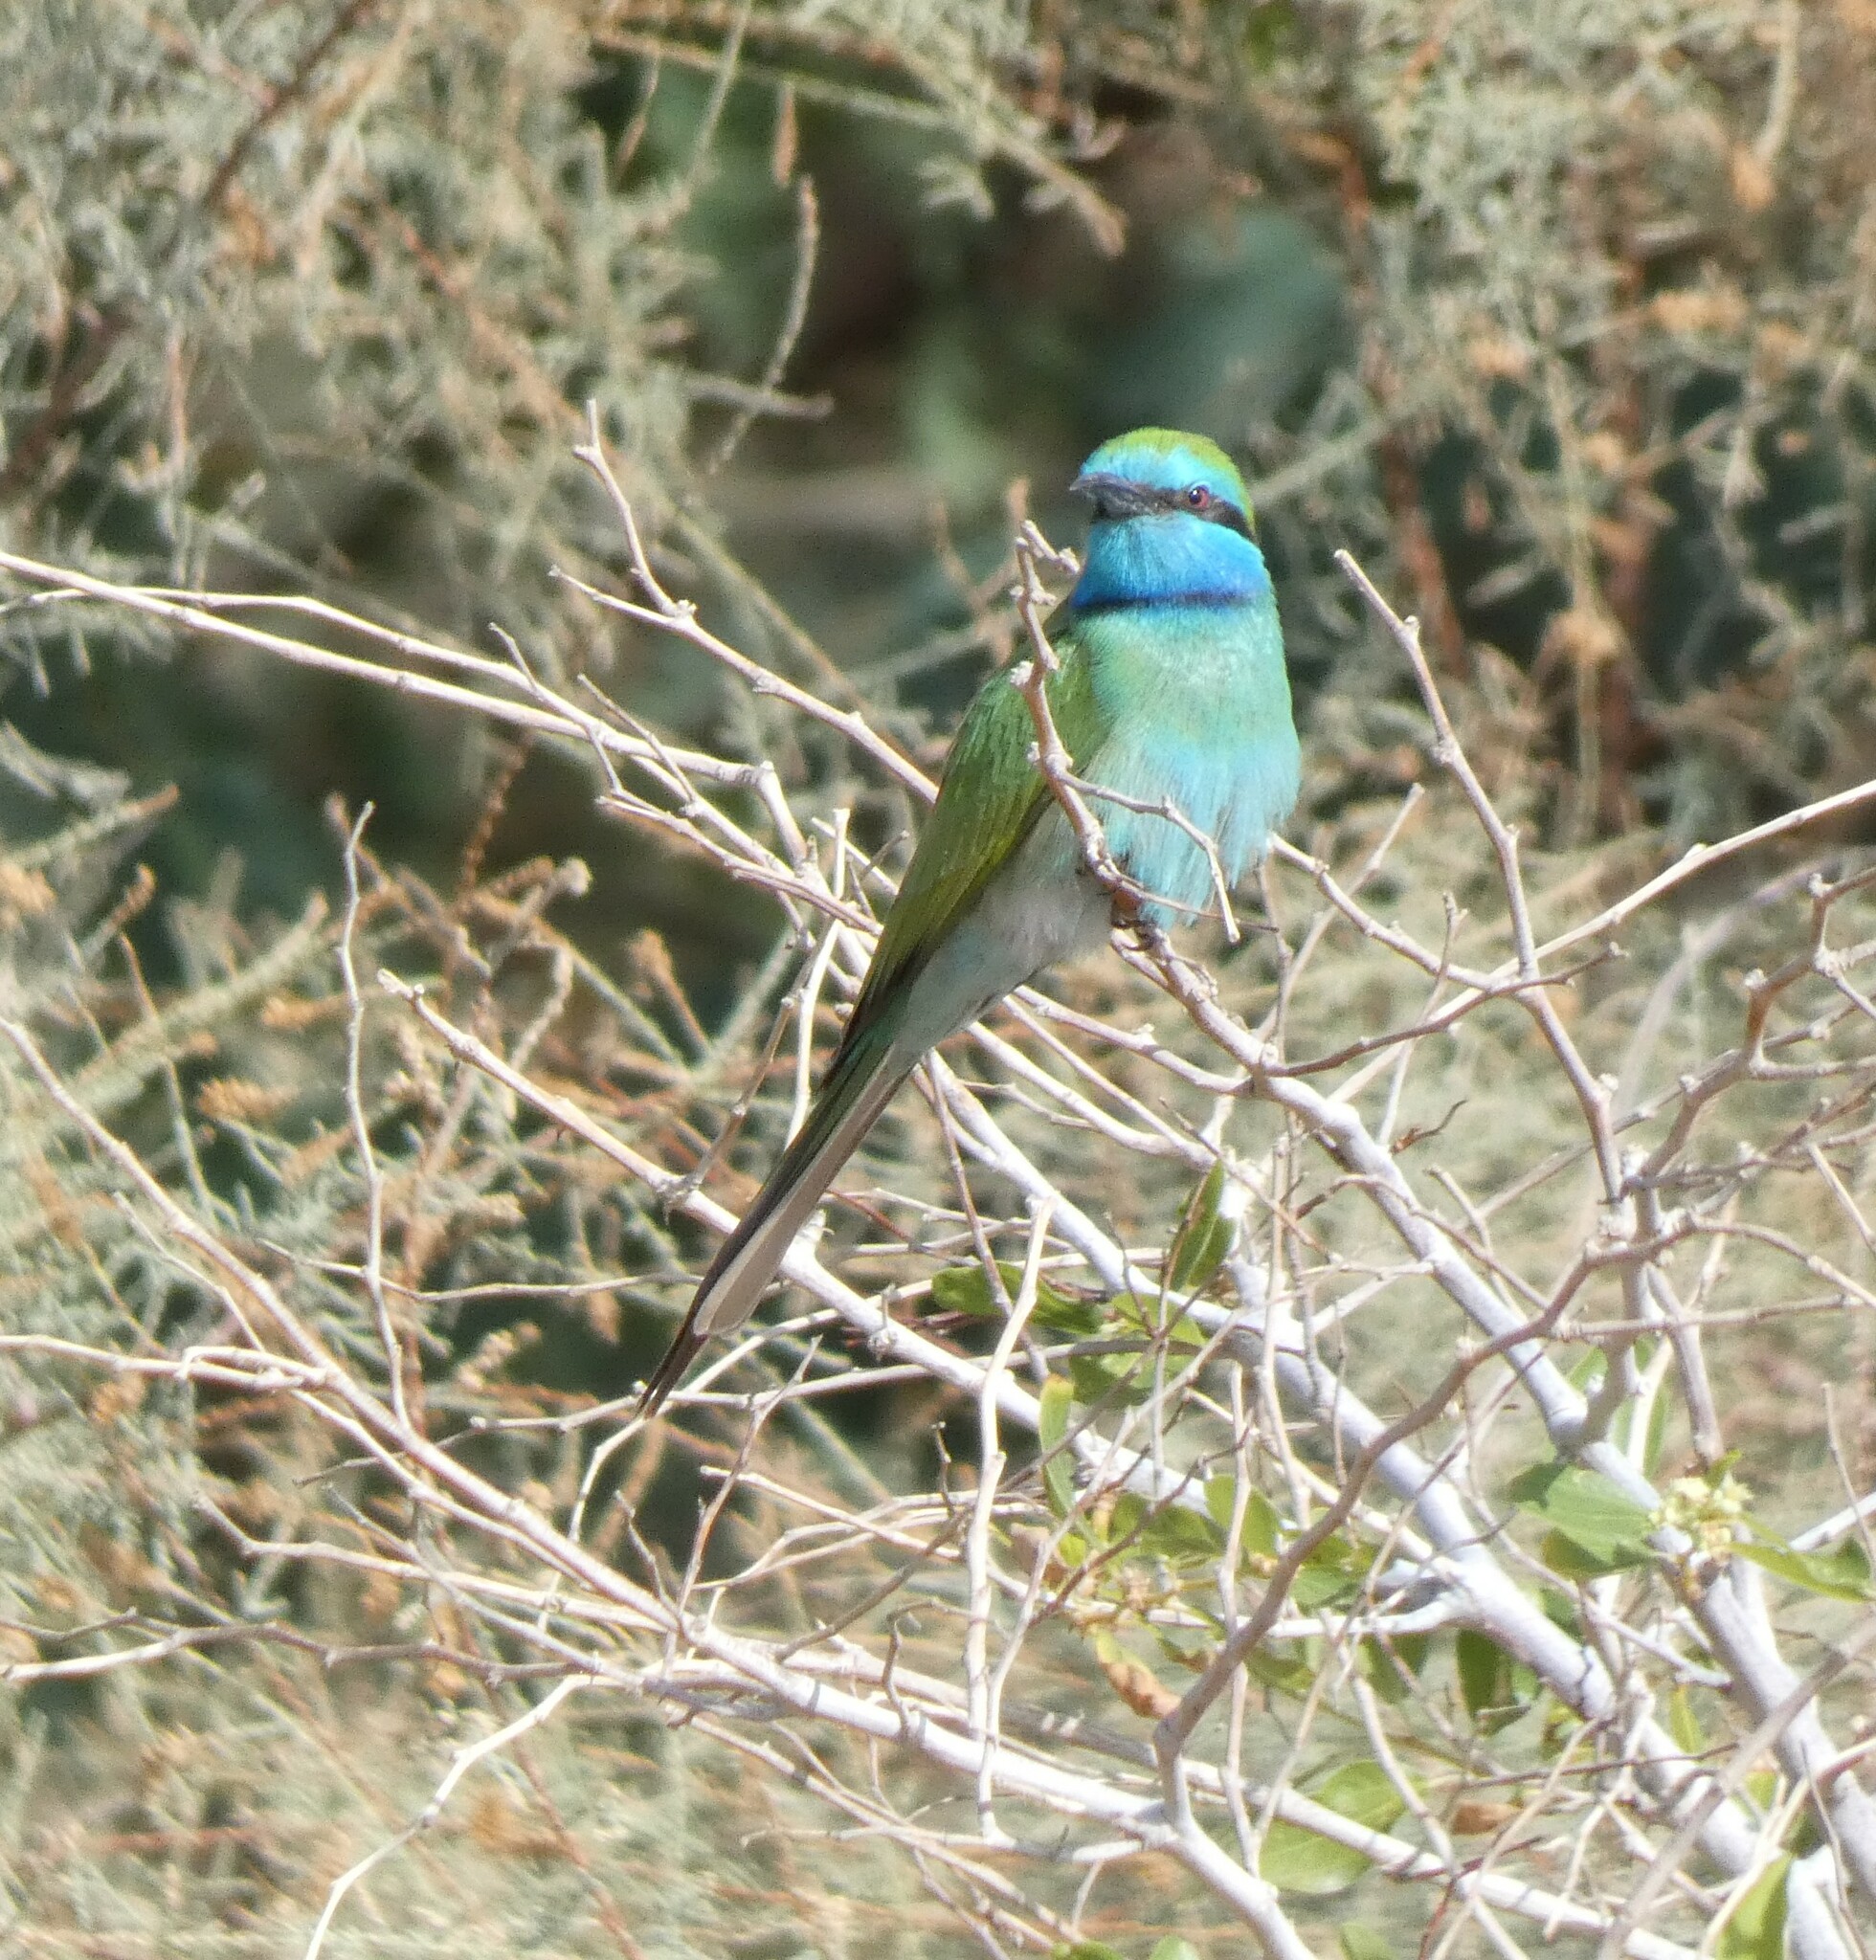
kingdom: Animalia
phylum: Chordata
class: Aves
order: Coraciiformes
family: Meropidae
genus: Merops
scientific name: Merops cyanophrys
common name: Arabian green bee-eater
